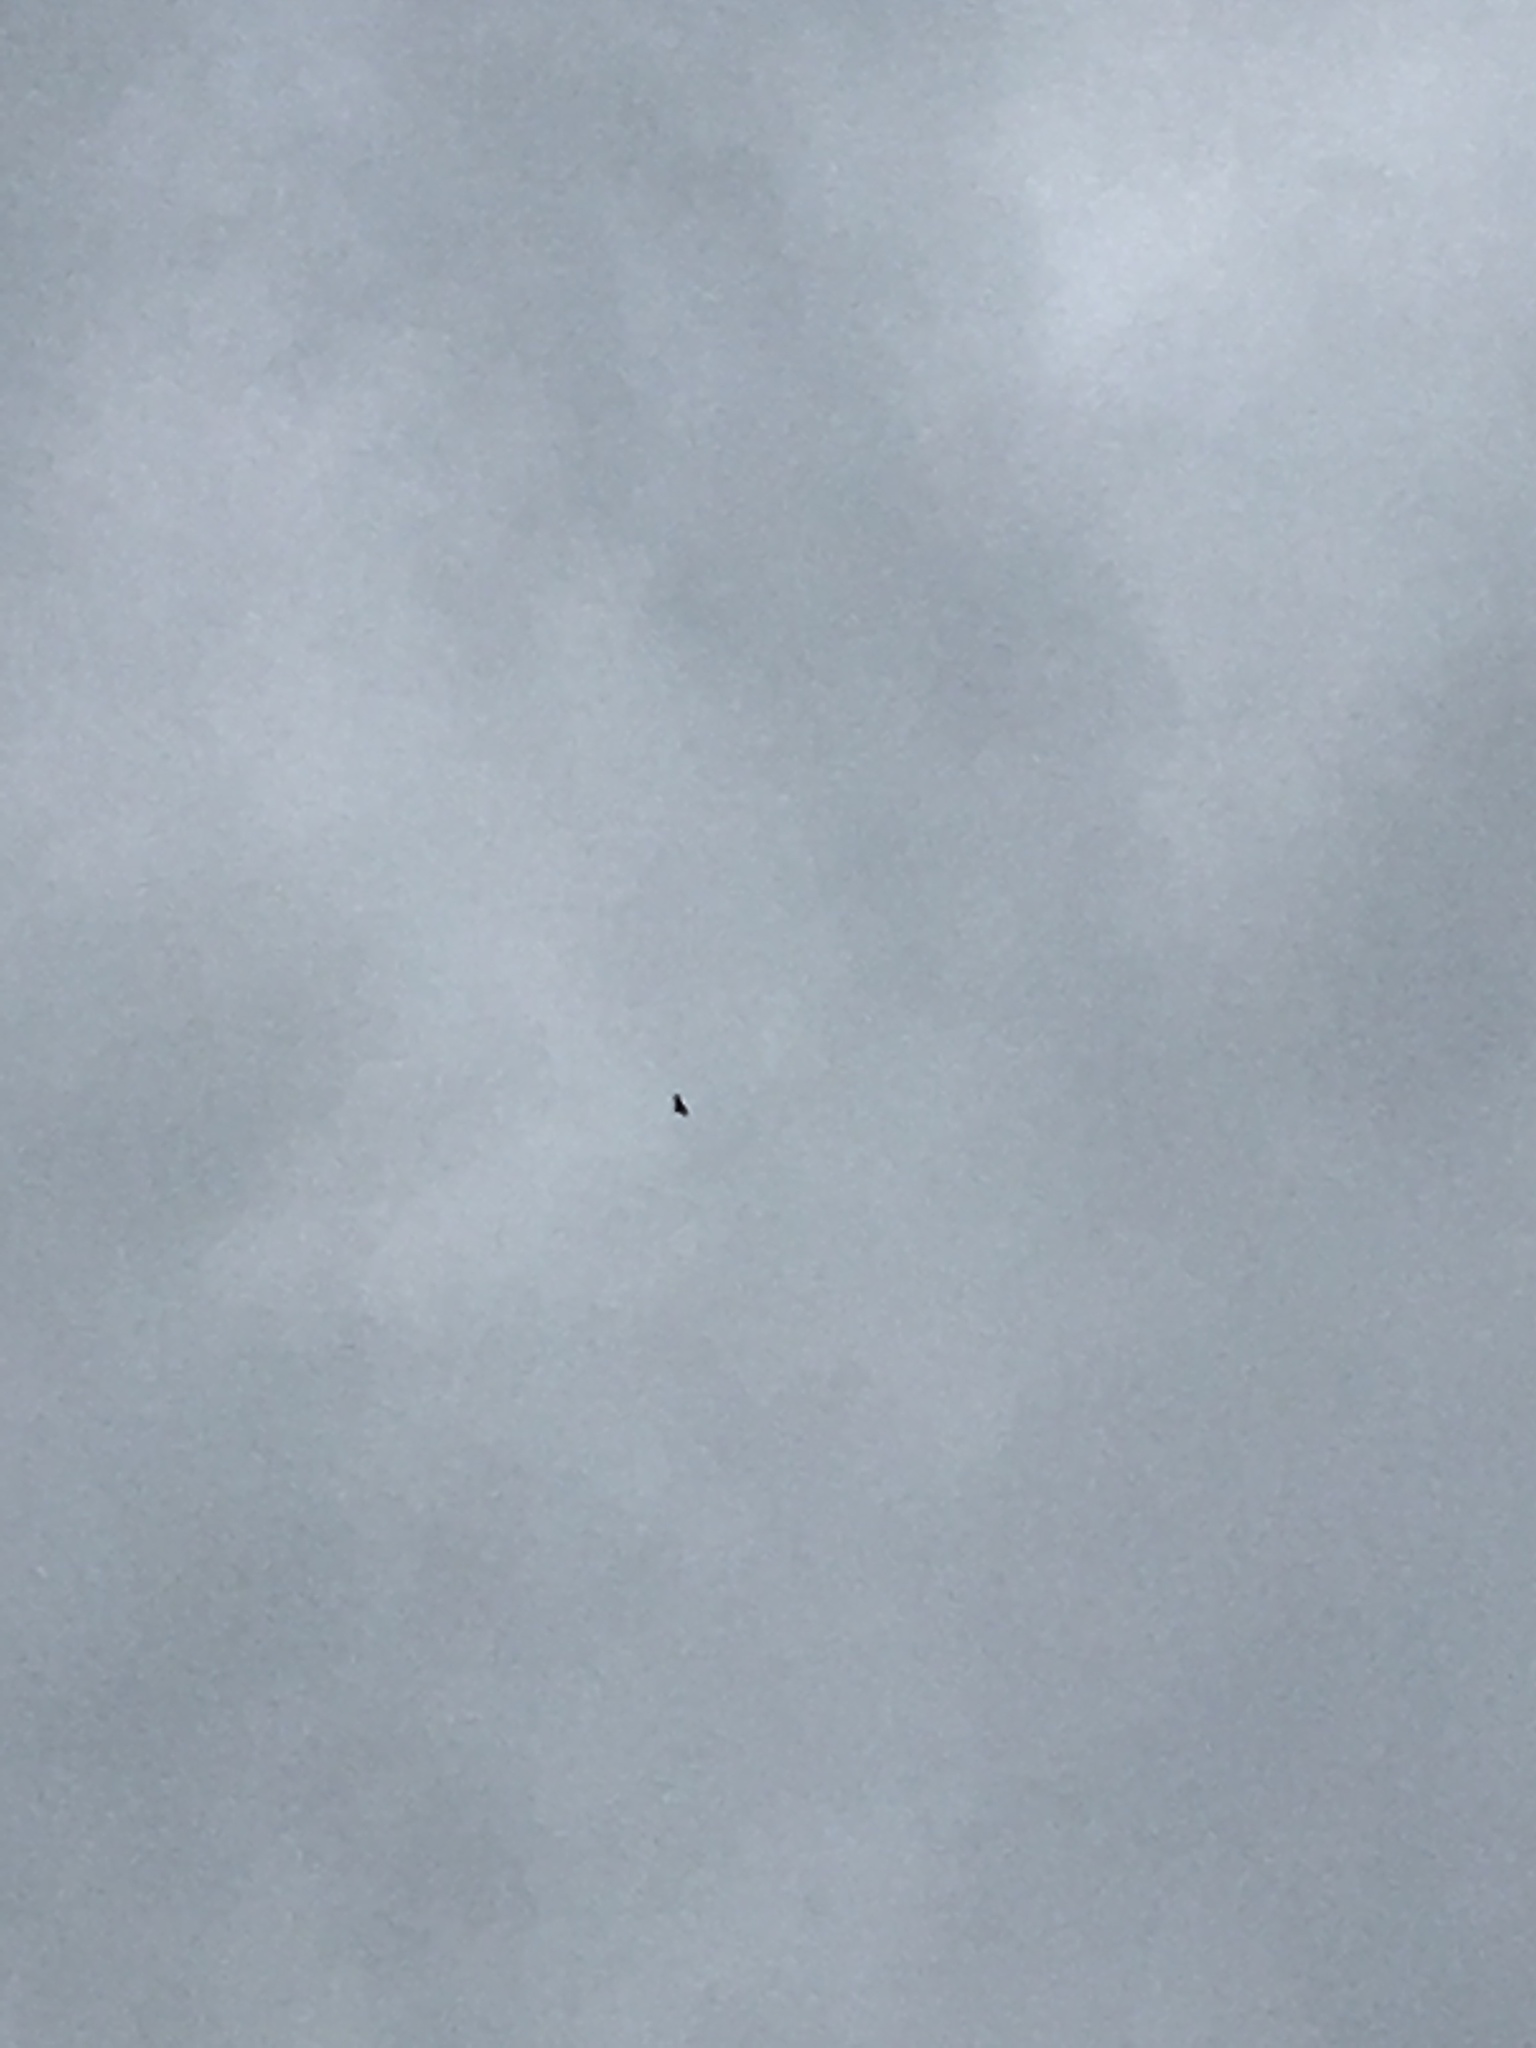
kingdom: Animalia
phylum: Chordata
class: Aves
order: Accipitriformes
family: Accipitridae
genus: Aquila
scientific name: Aquila chrysaetos
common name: Golden eagle
